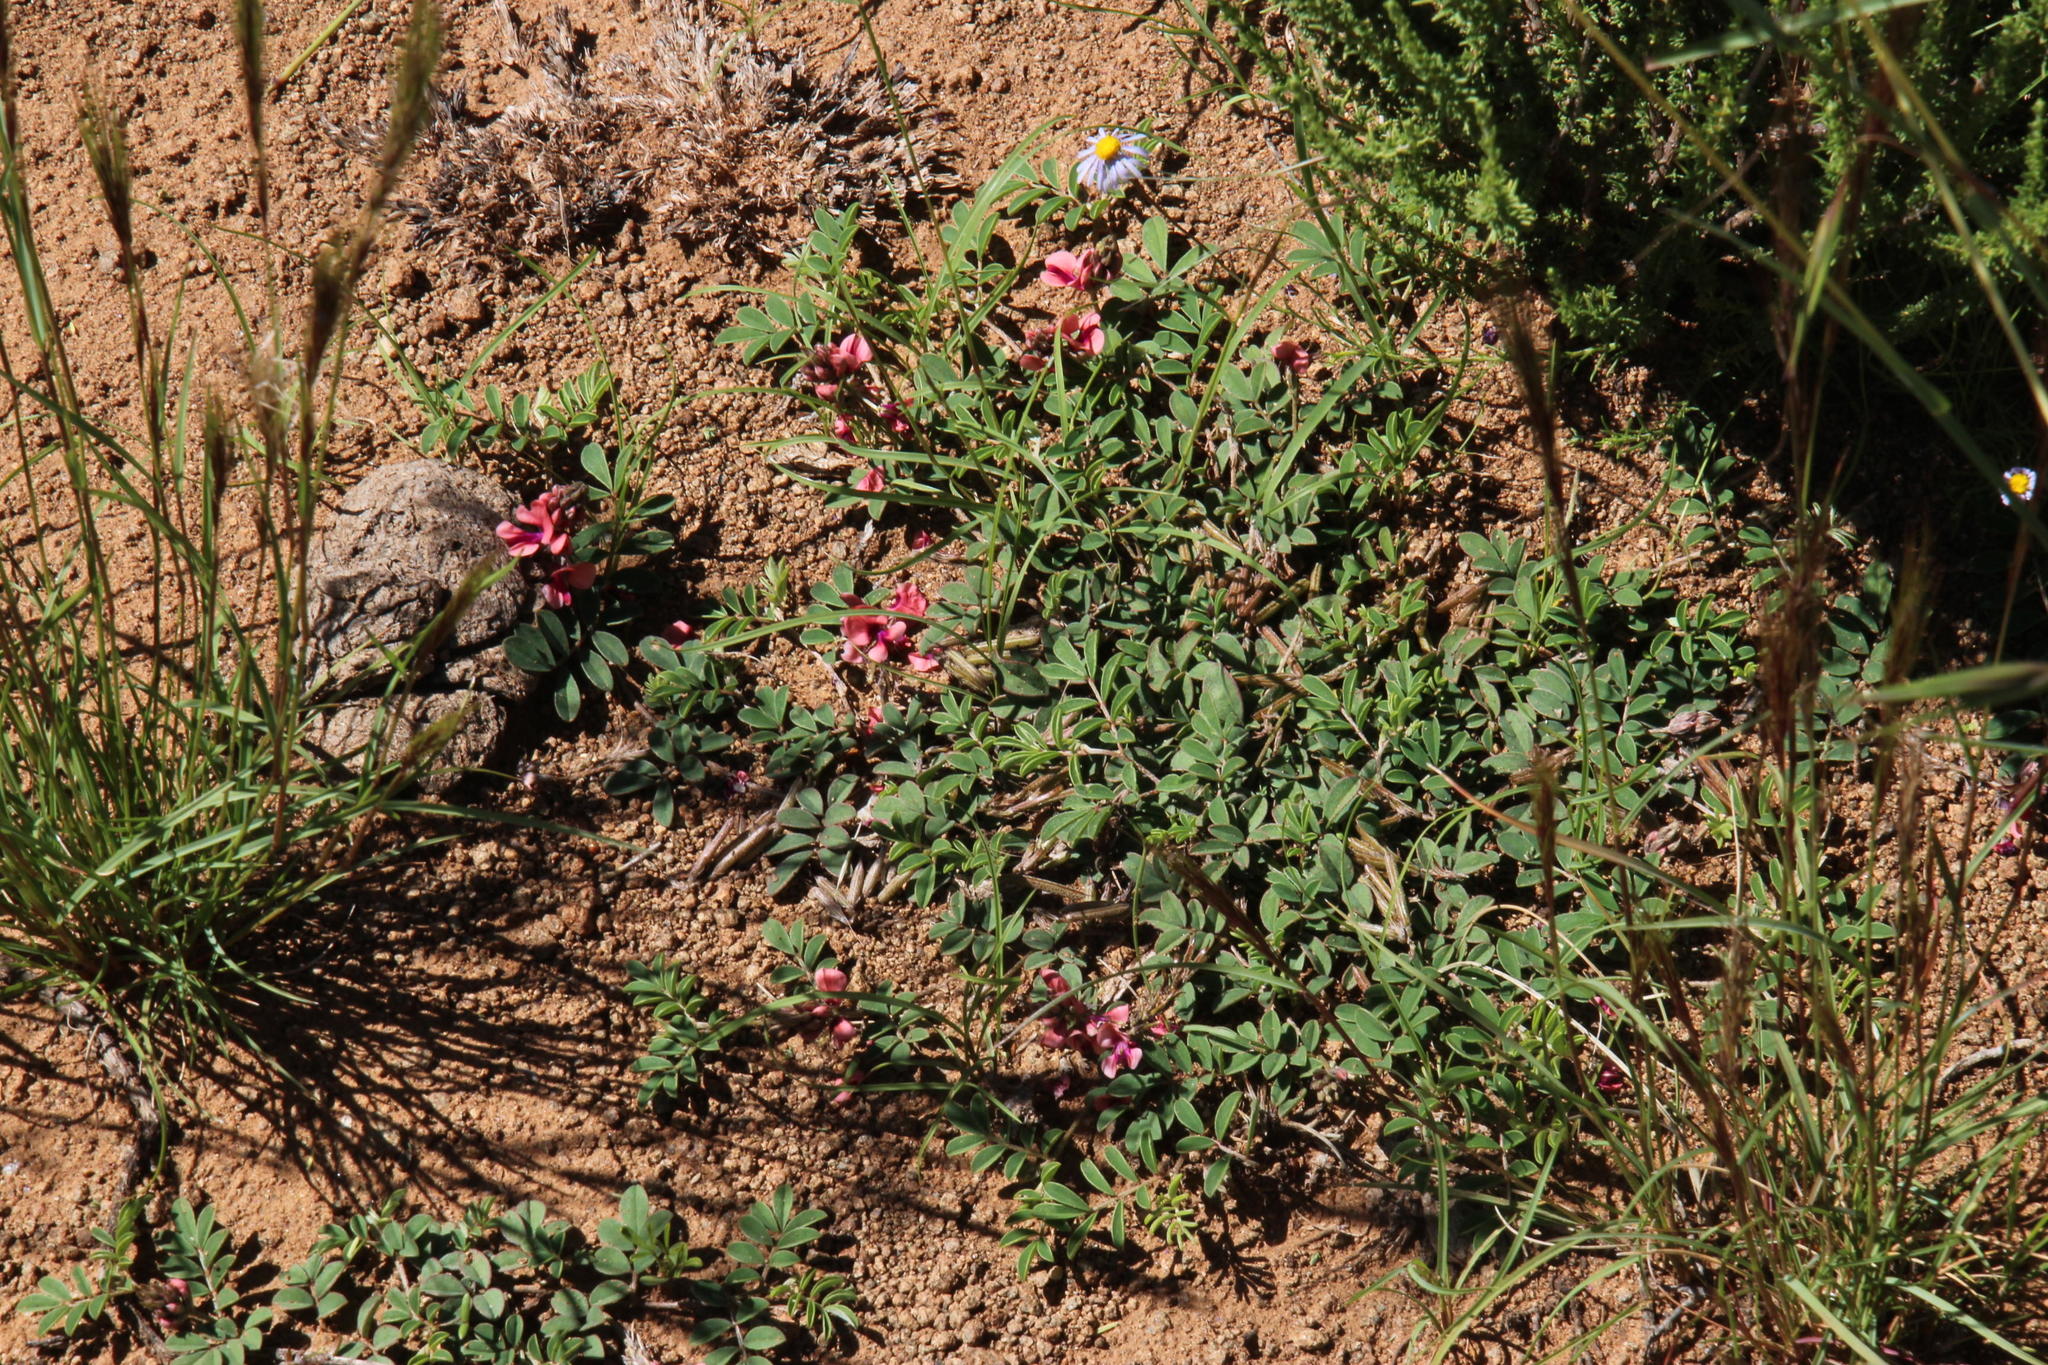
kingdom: Plantae
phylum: Tracheophyta
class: Magnoliopsida
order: Fabales
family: Fabaceae
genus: Indigofera
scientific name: Indigofera alternans
